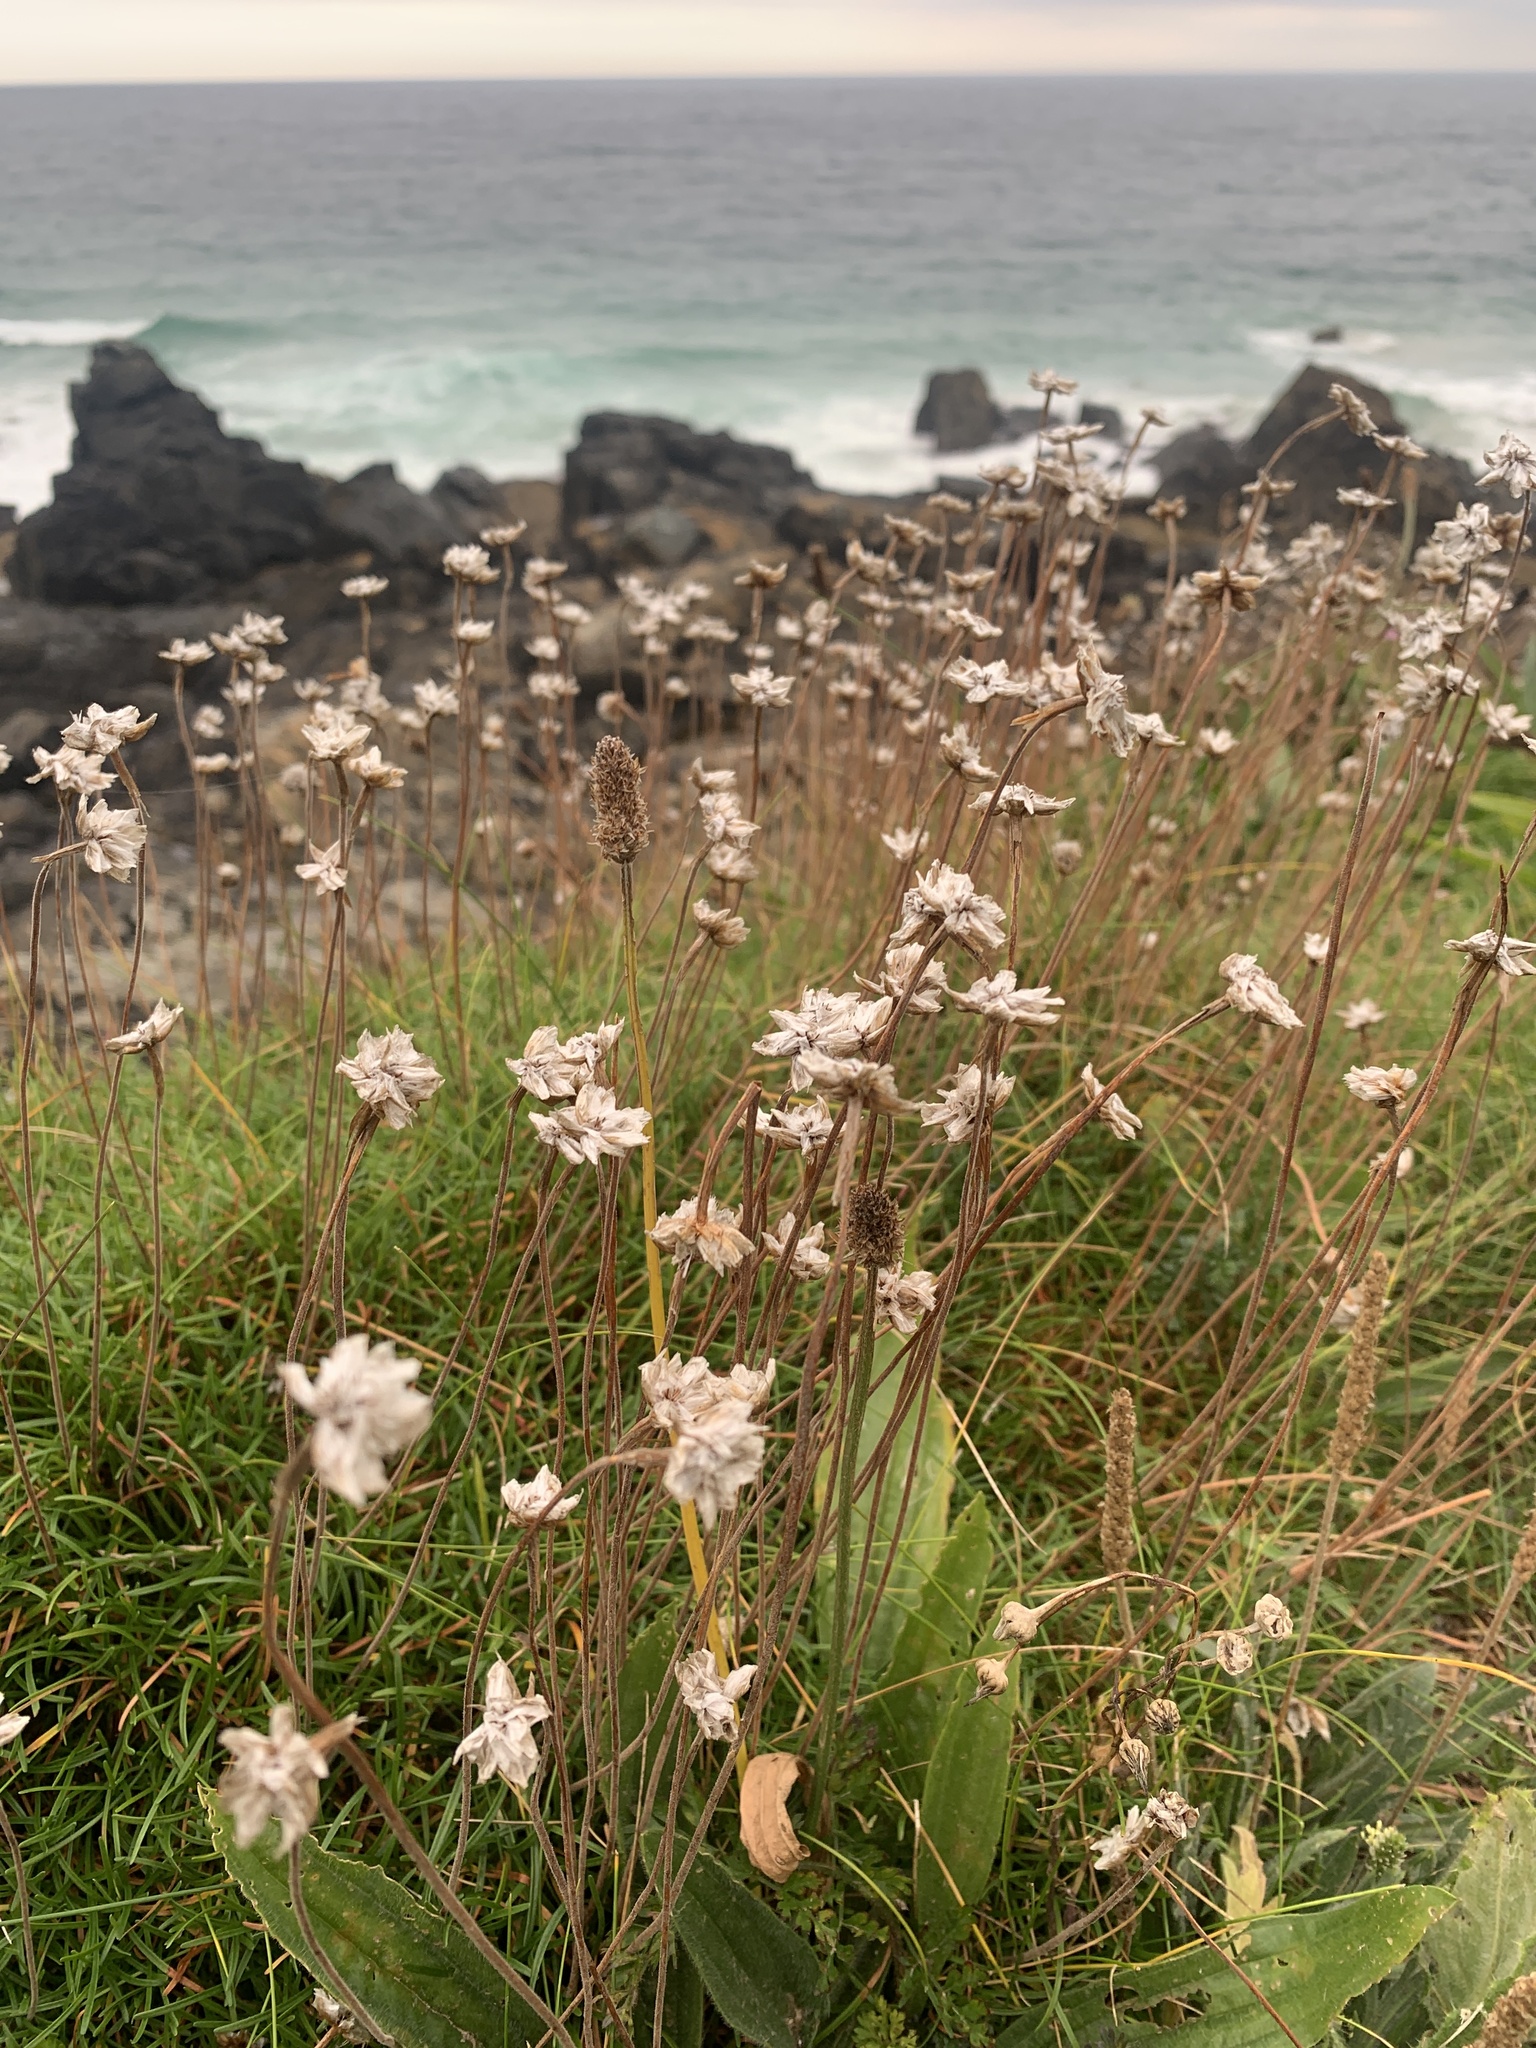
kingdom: Plantae
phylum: Tracheophyta
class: Magnoliopsida
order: Caryophyllales
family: Plumbaginaceae
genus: Armeria
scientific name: Armeria maritima
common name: Thrift
